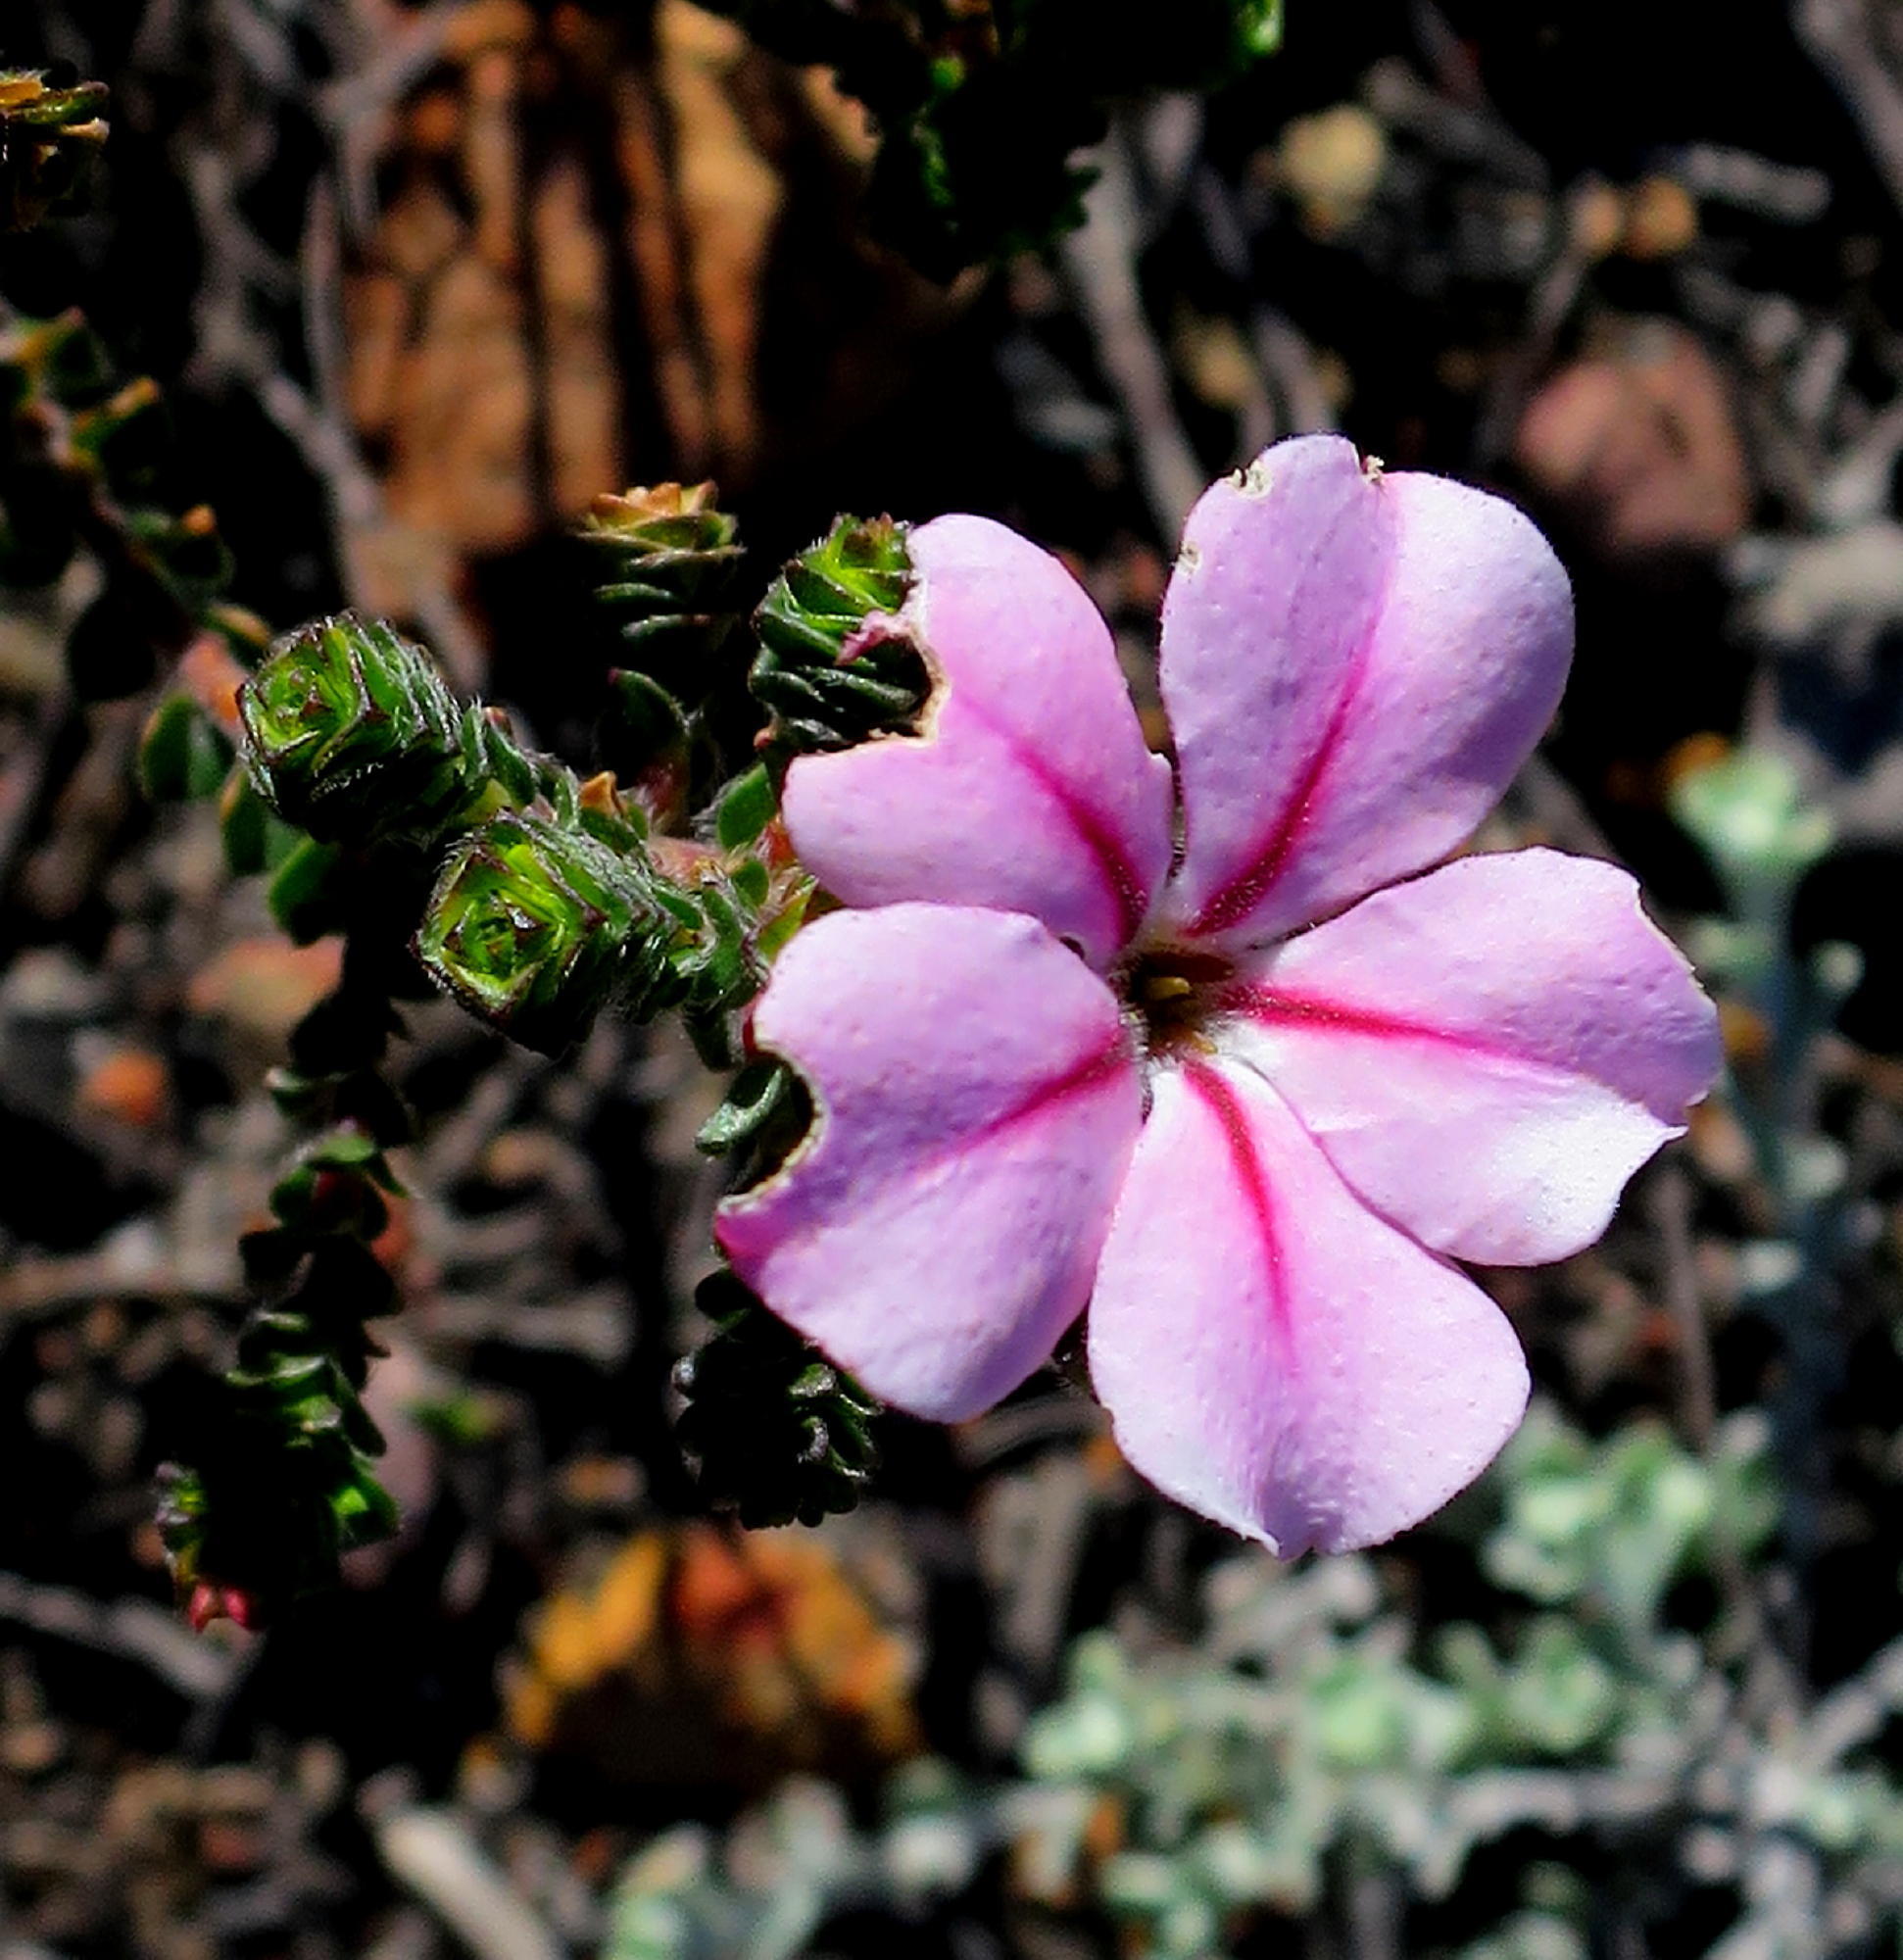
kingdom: Plantae
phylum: Tracheophyta
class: Magnoliopsida
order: Sapindales
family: Rutaceae
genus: Acmadenia
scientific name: Acmadenia tetragona
